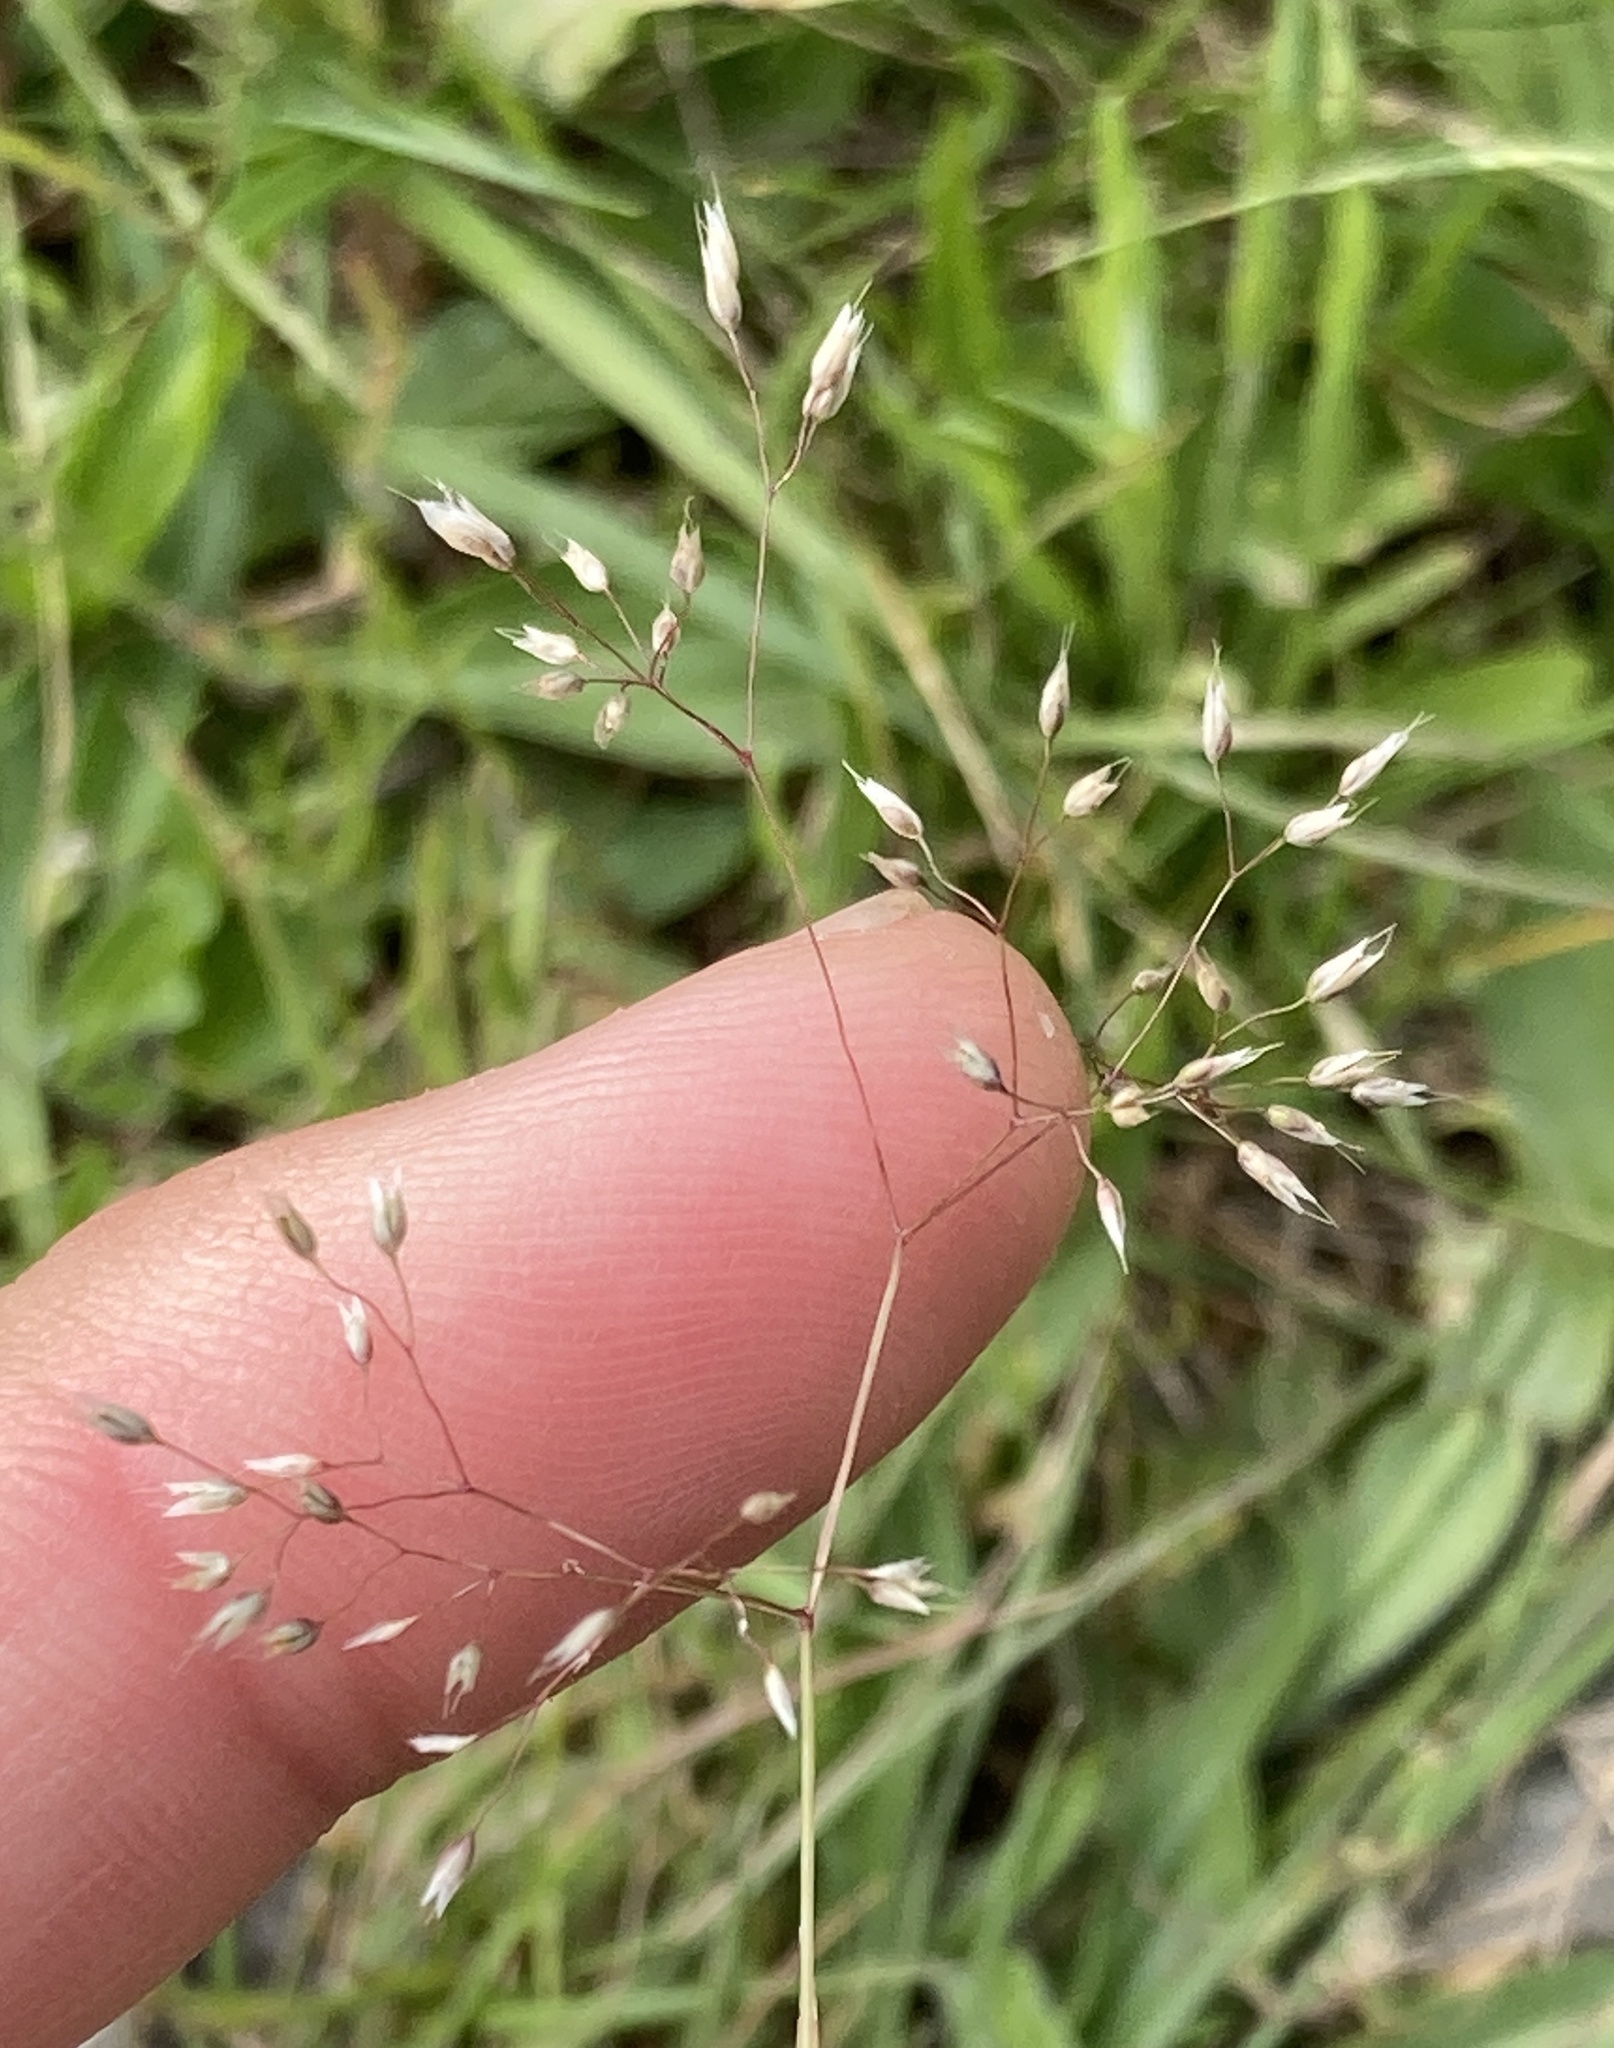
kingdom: Plantae
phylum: Tracheophyta
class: Liliopsida
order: Poales
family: Poaceae
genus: Aira
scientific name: Aira caryophyllea
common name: Silver hairgrass
